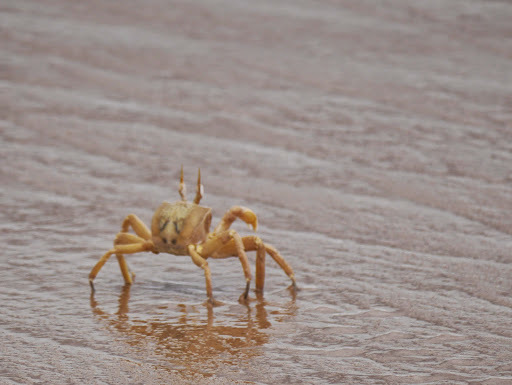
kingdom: Animalia
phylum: Arthropoda
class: Malacostraca
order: Decapoda
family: Ocypodidae
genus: Ocypode
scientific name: Ocypode cursor
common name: Tufted ghost crab
